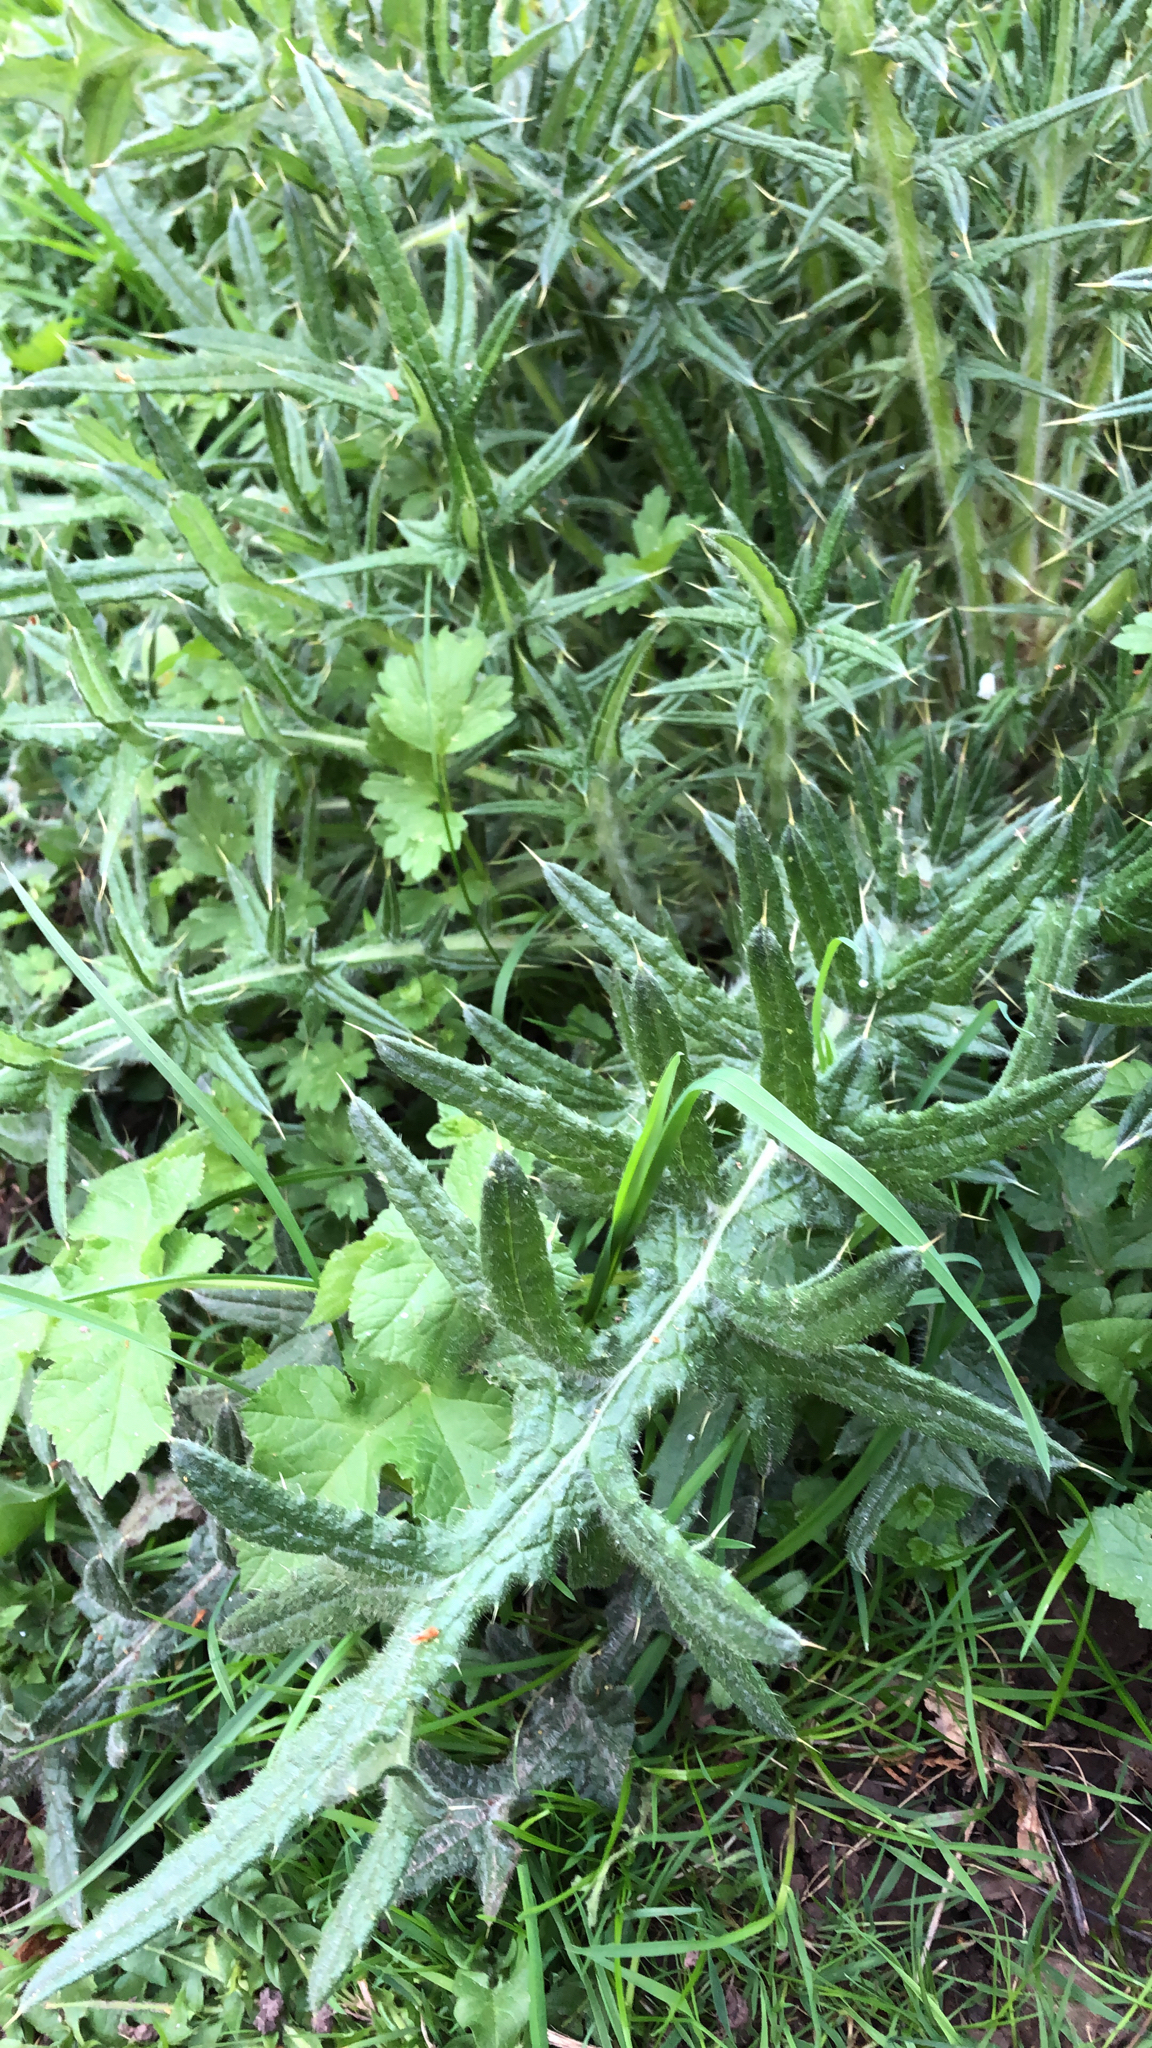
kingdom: Plantae
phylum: Tracheophyta
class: Magnoliopsida
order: Asterales
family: Asteraceae
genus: Cirsium
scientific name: Cirsium vulgare
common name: Bull thistle
